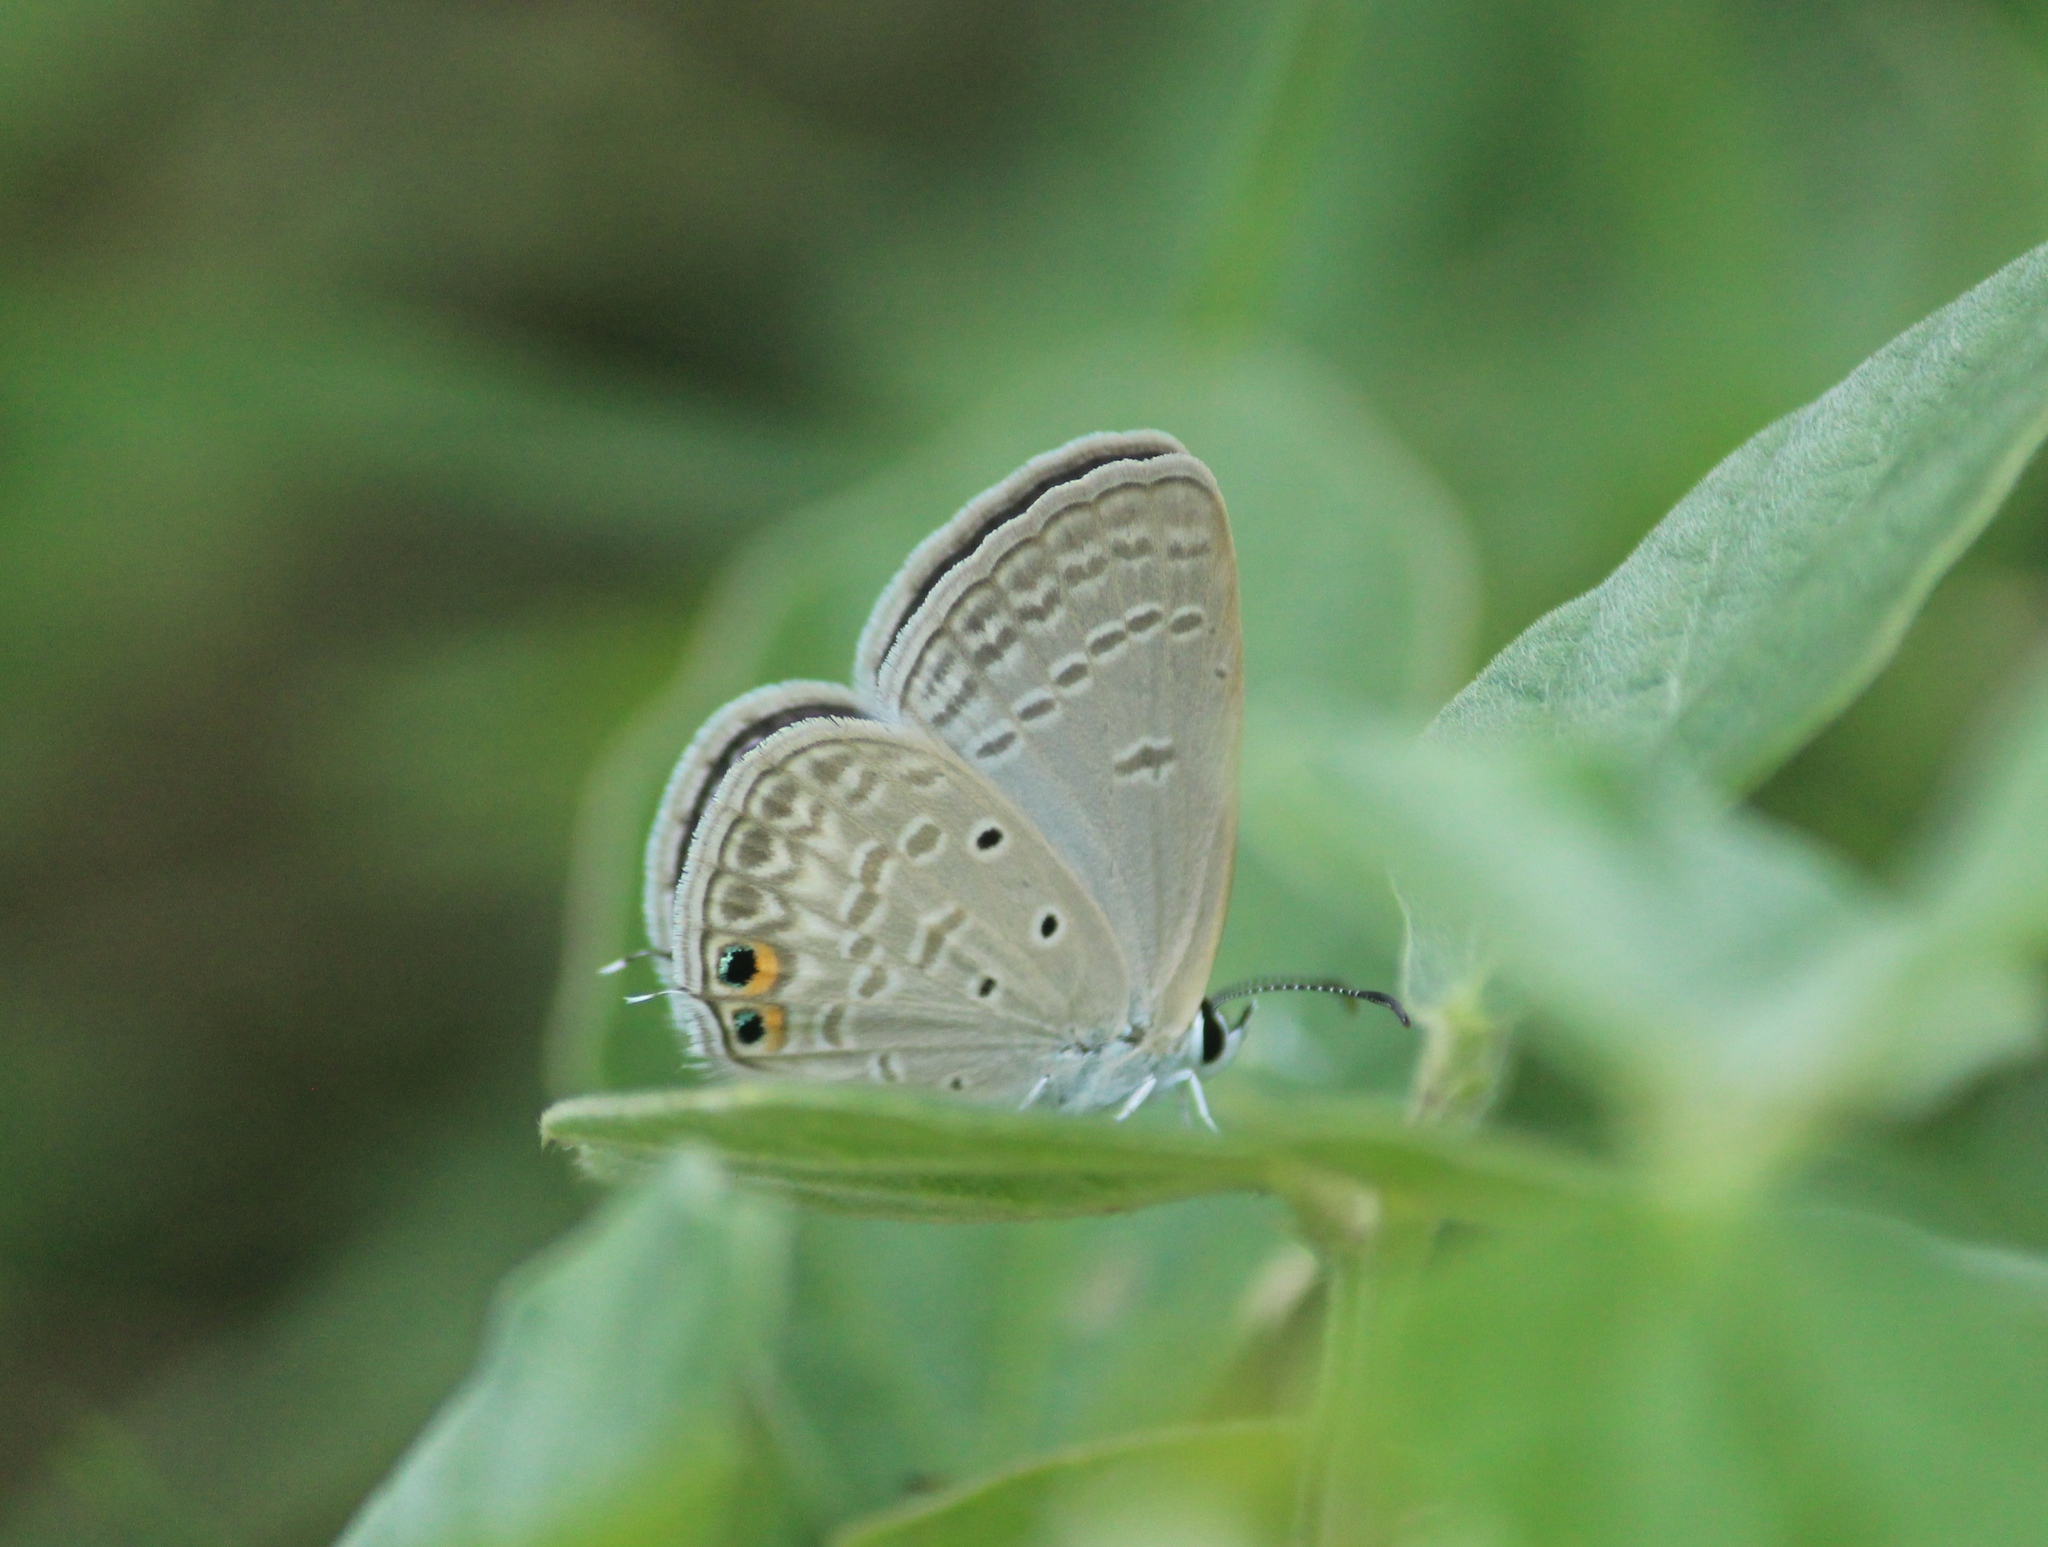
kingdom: Animalia
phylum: Arthropoda
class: Insecta
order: Lepidoptera
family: Lycaenidae
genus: Euchrysops
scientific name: Euchrysops cnejus
